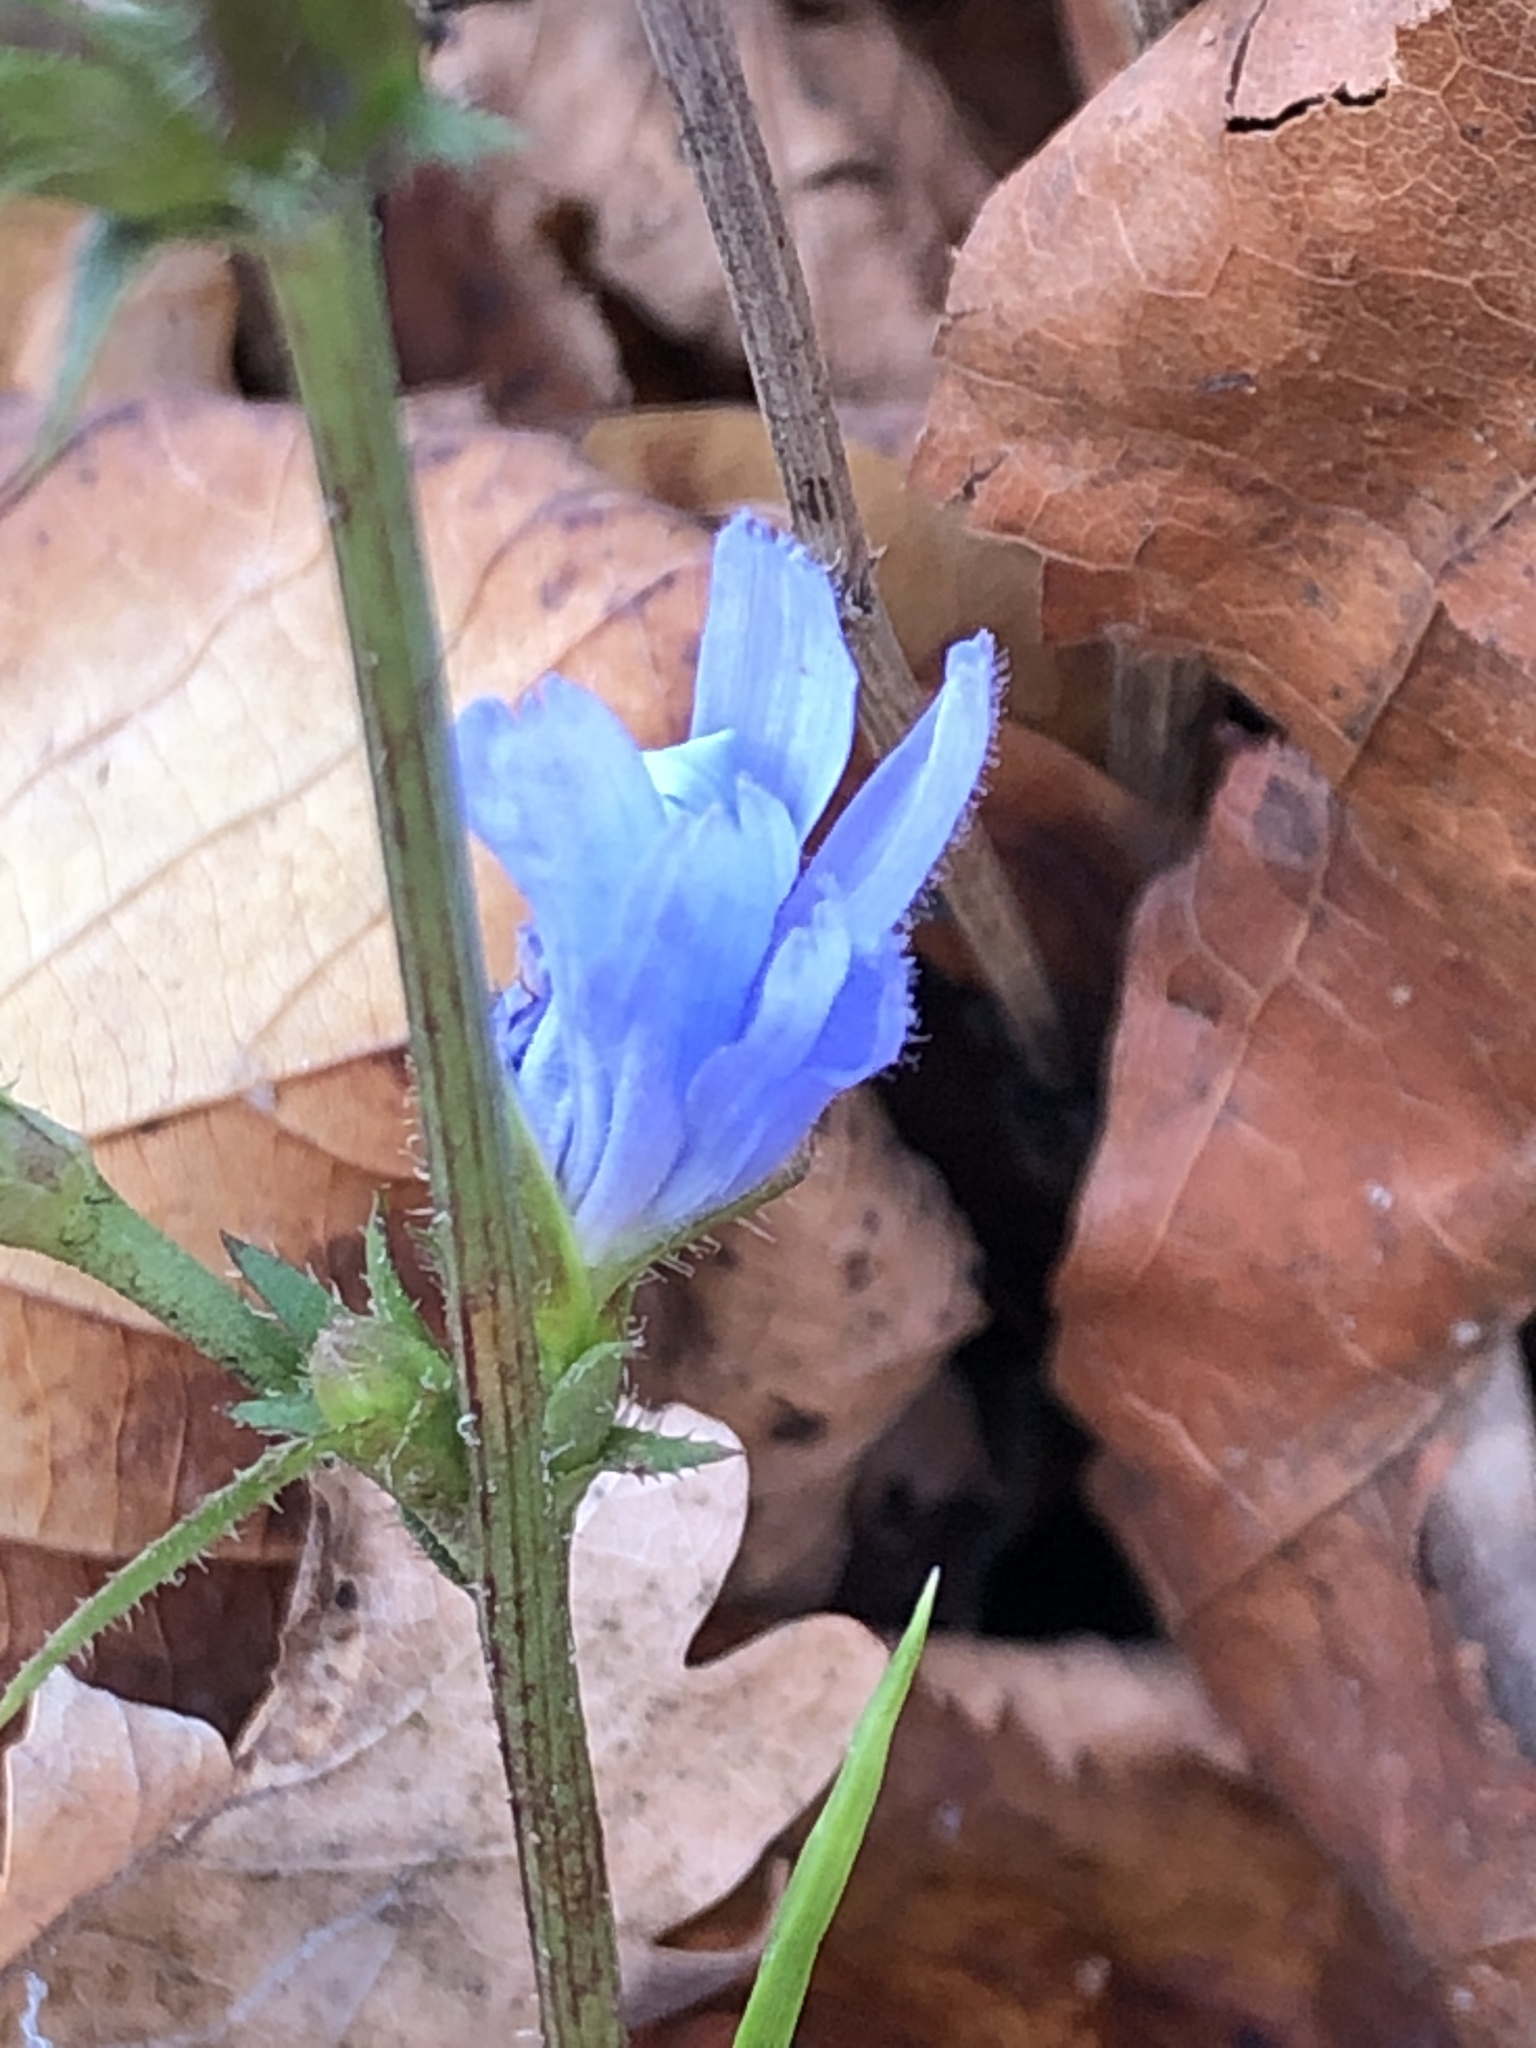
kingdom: Plantae
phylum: Tracheophyta
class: Magnoliopsida
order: Asterales
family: Asteraceae
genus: Cichorium
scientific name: Cichorium intybus
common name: Chicory
